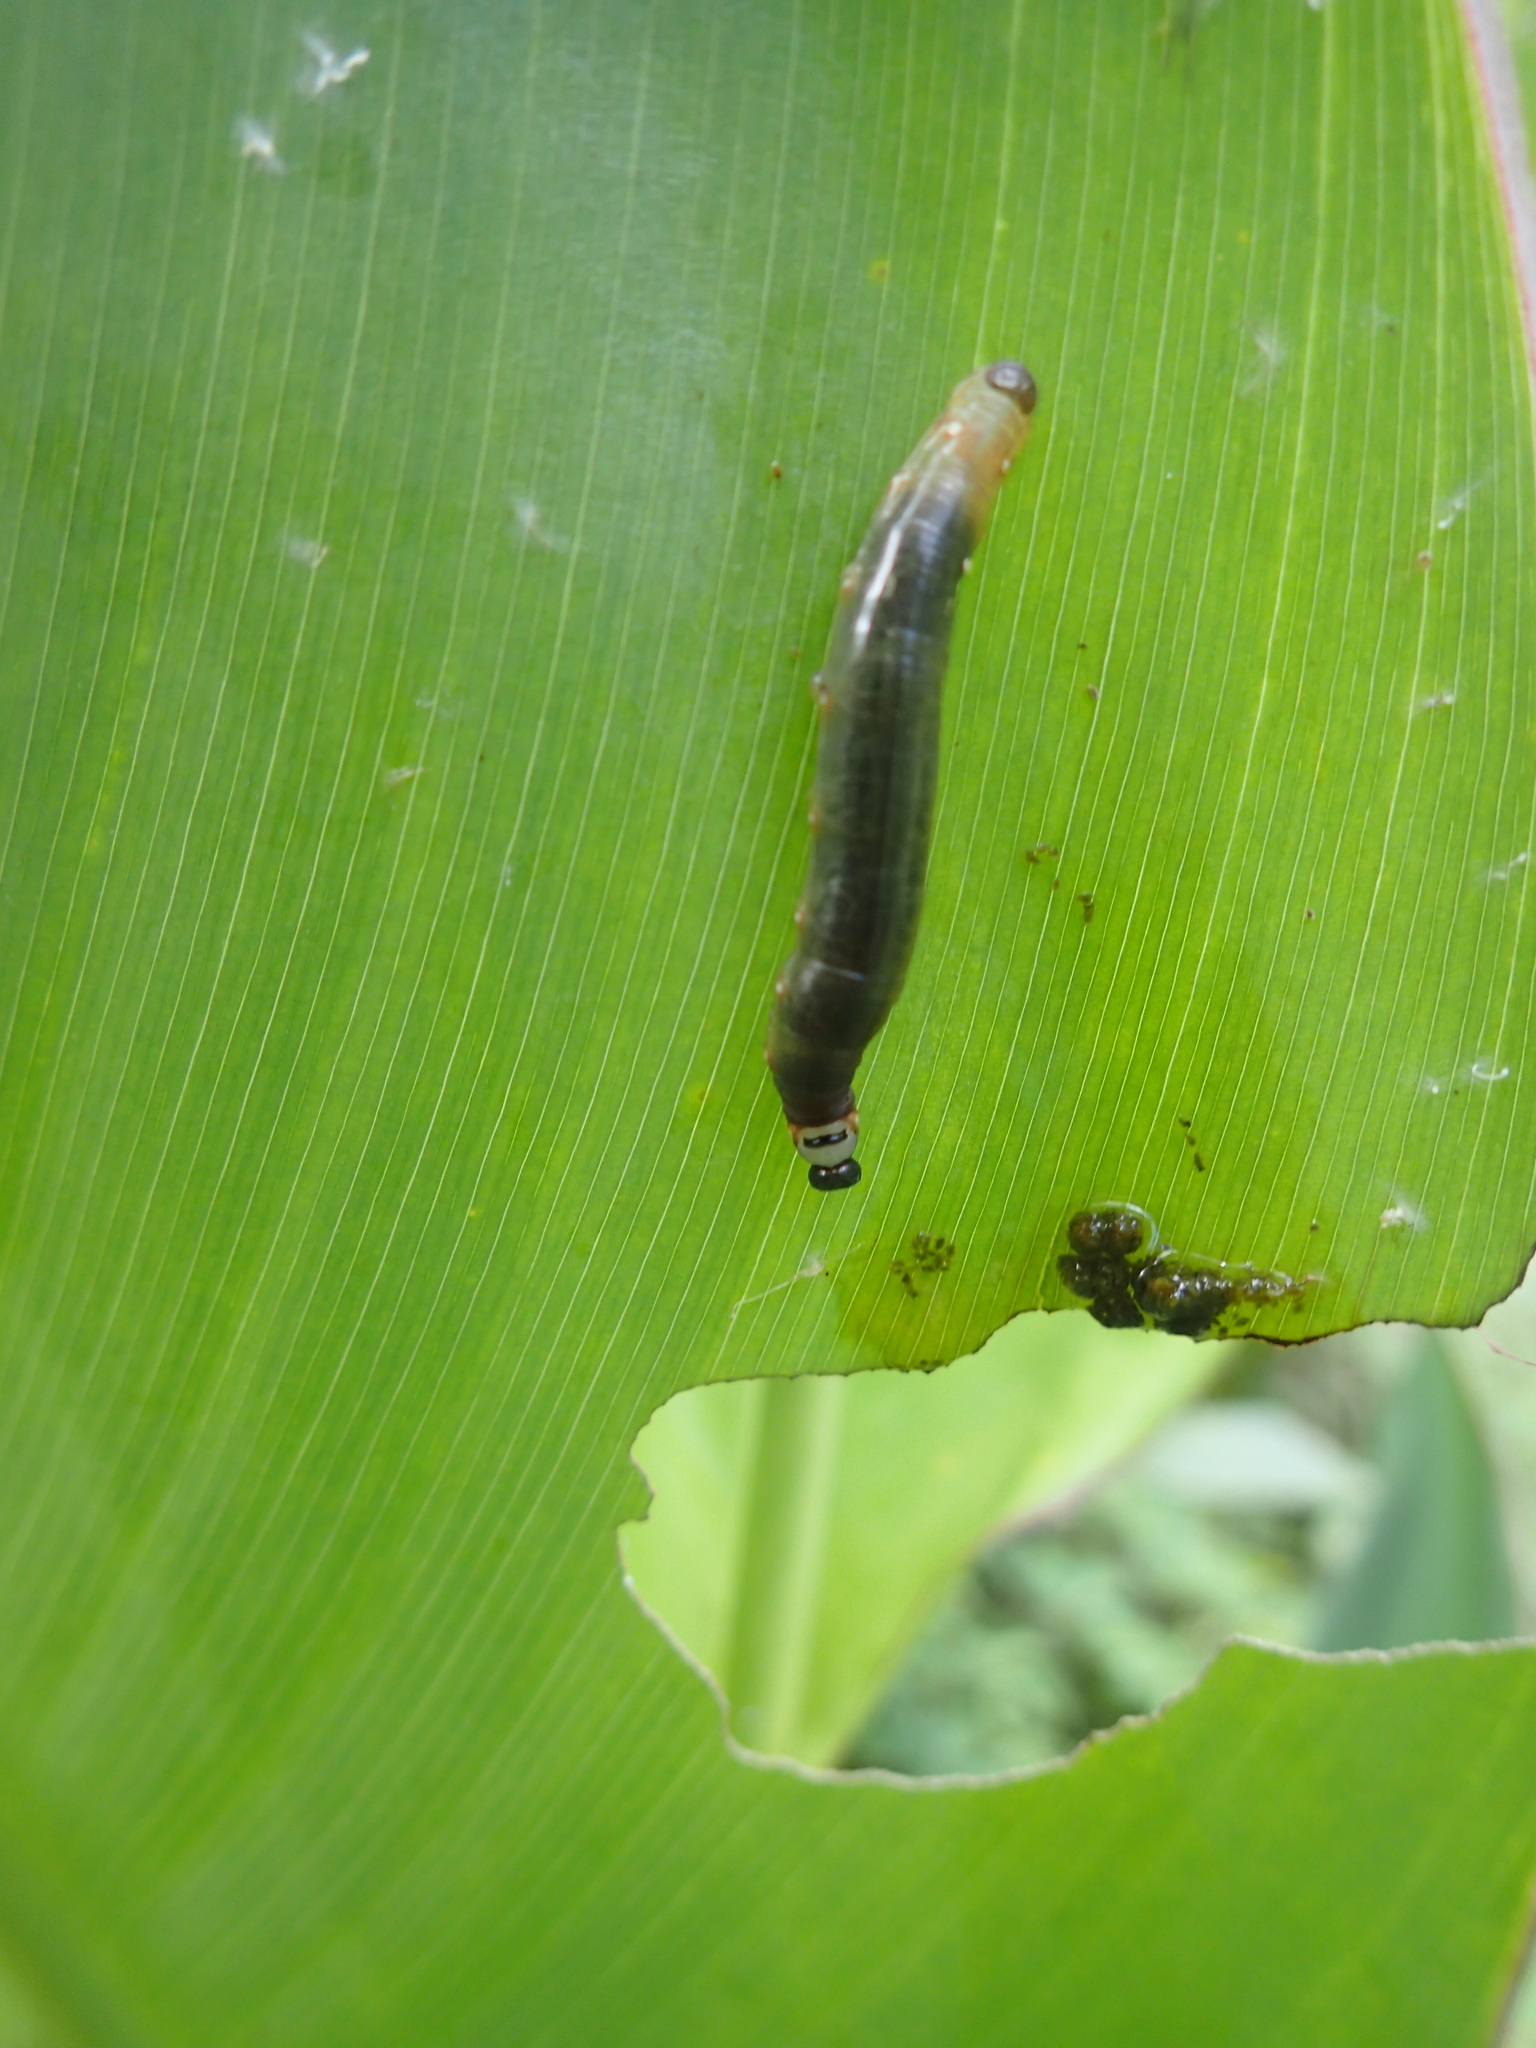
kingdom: Animalia
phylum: Arthropoda
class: Insecta
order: Lepidoptera
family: Hesperiidae
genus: Calpodes
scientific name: Calpodes ethlius
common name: Brazilian skipper
